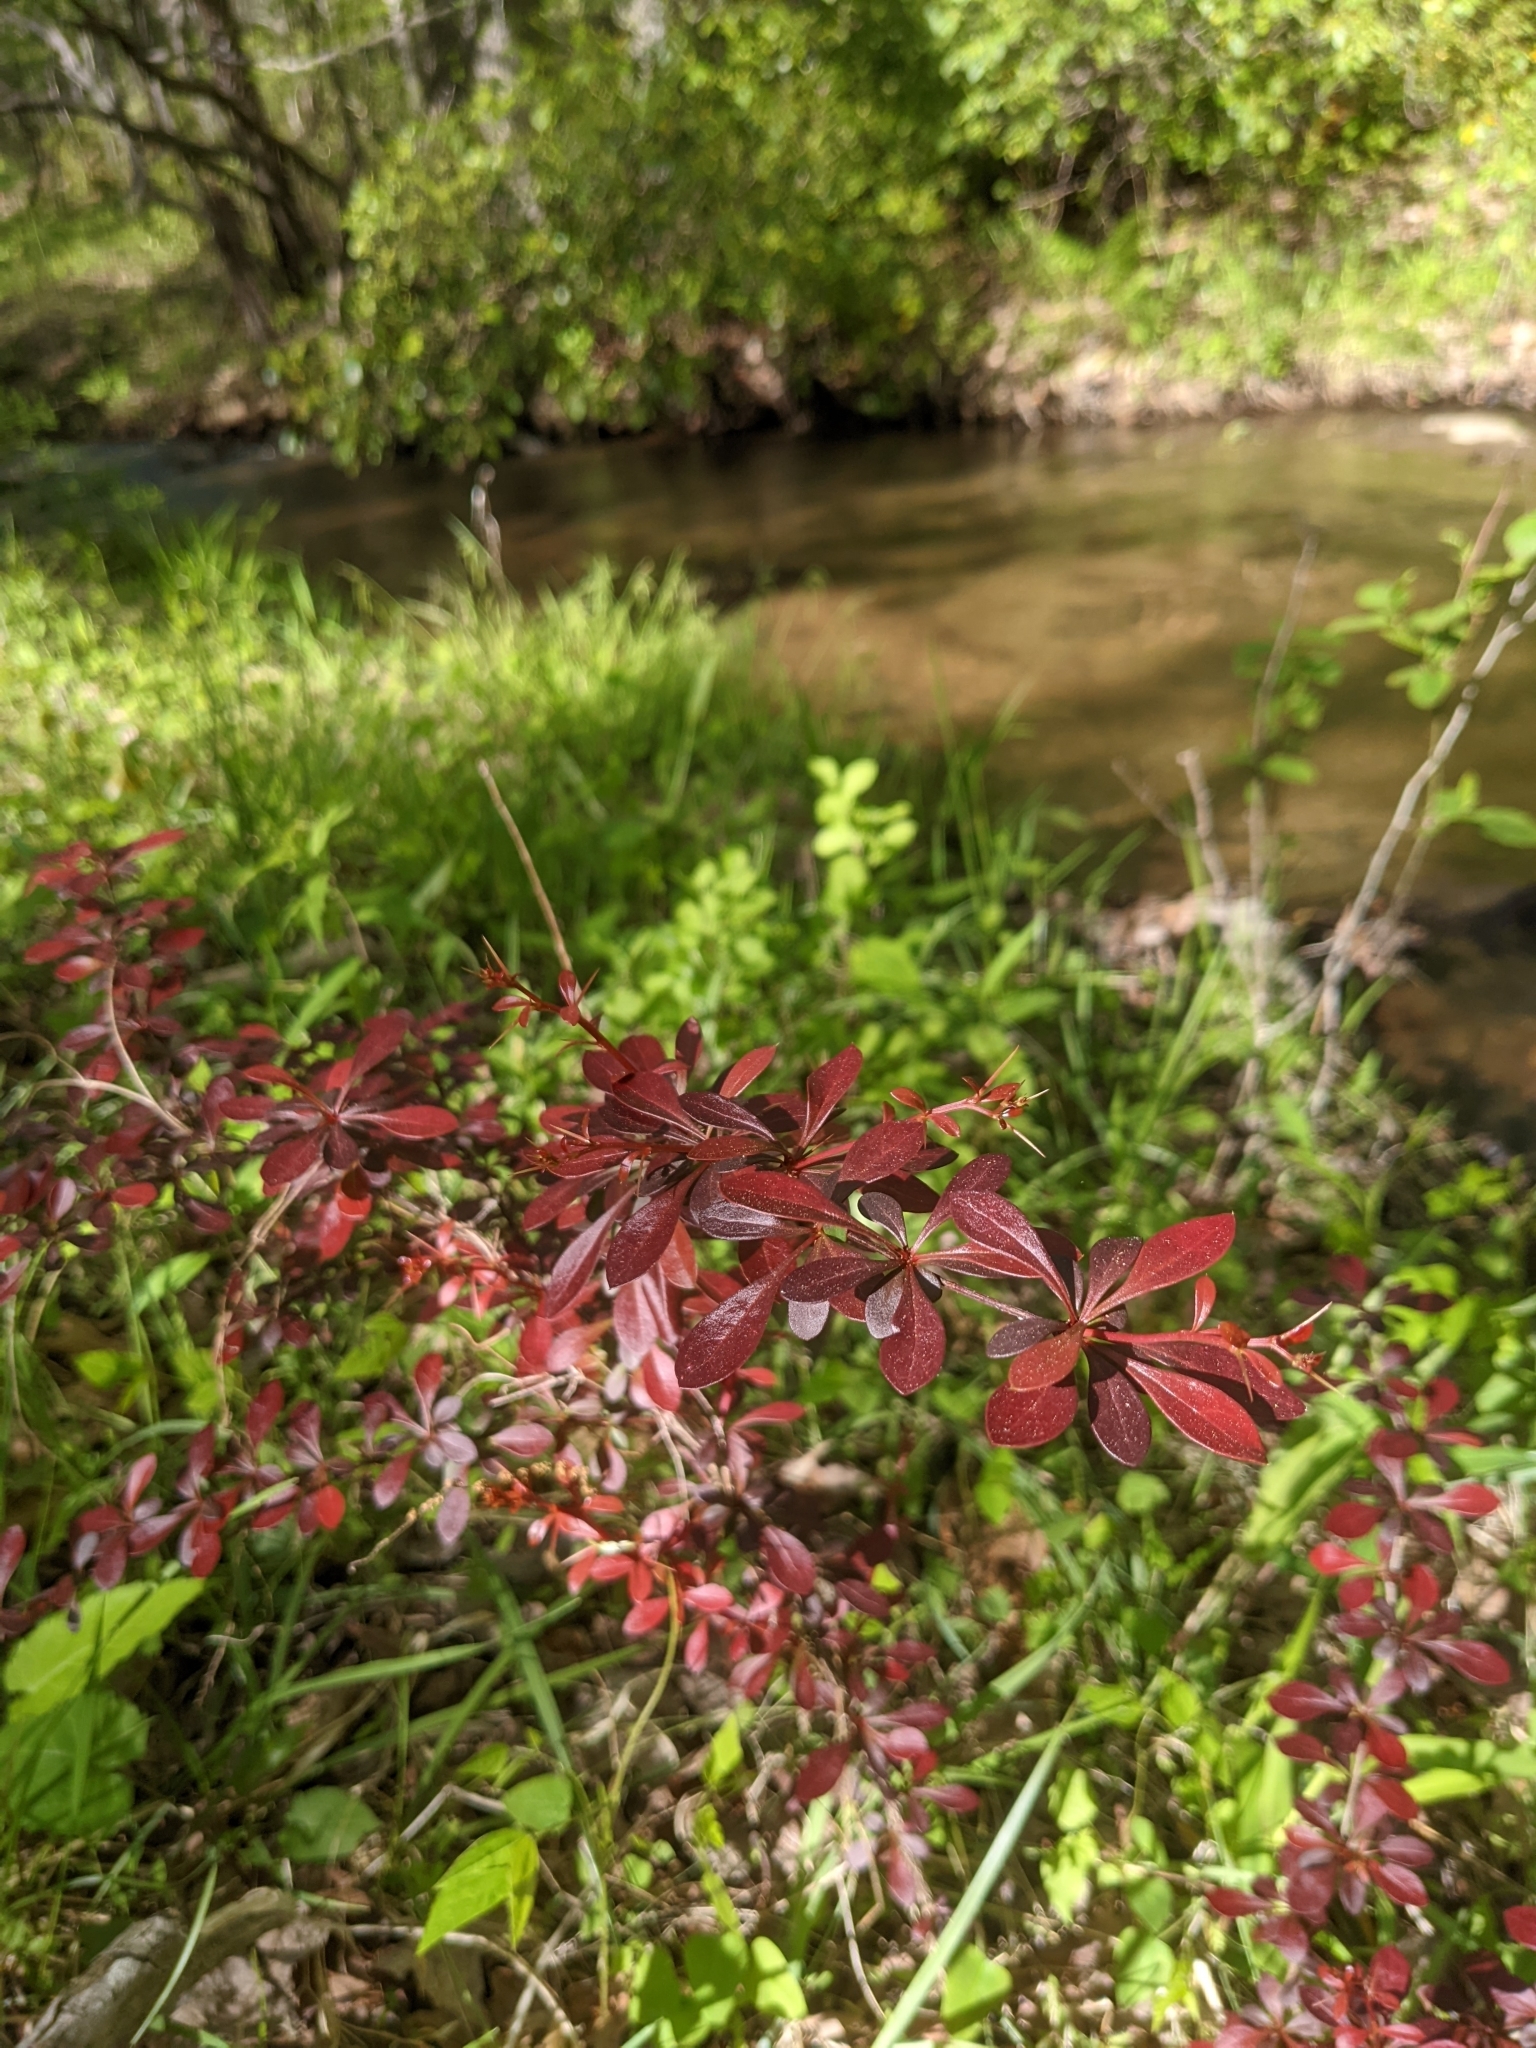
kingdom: Plantae
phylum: Tracheophyta
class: Magnoliopsida
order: Ranunculales
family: Berberidaceae
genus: Berberis
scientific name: Berberis thunbergii
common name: Japanese barberry
